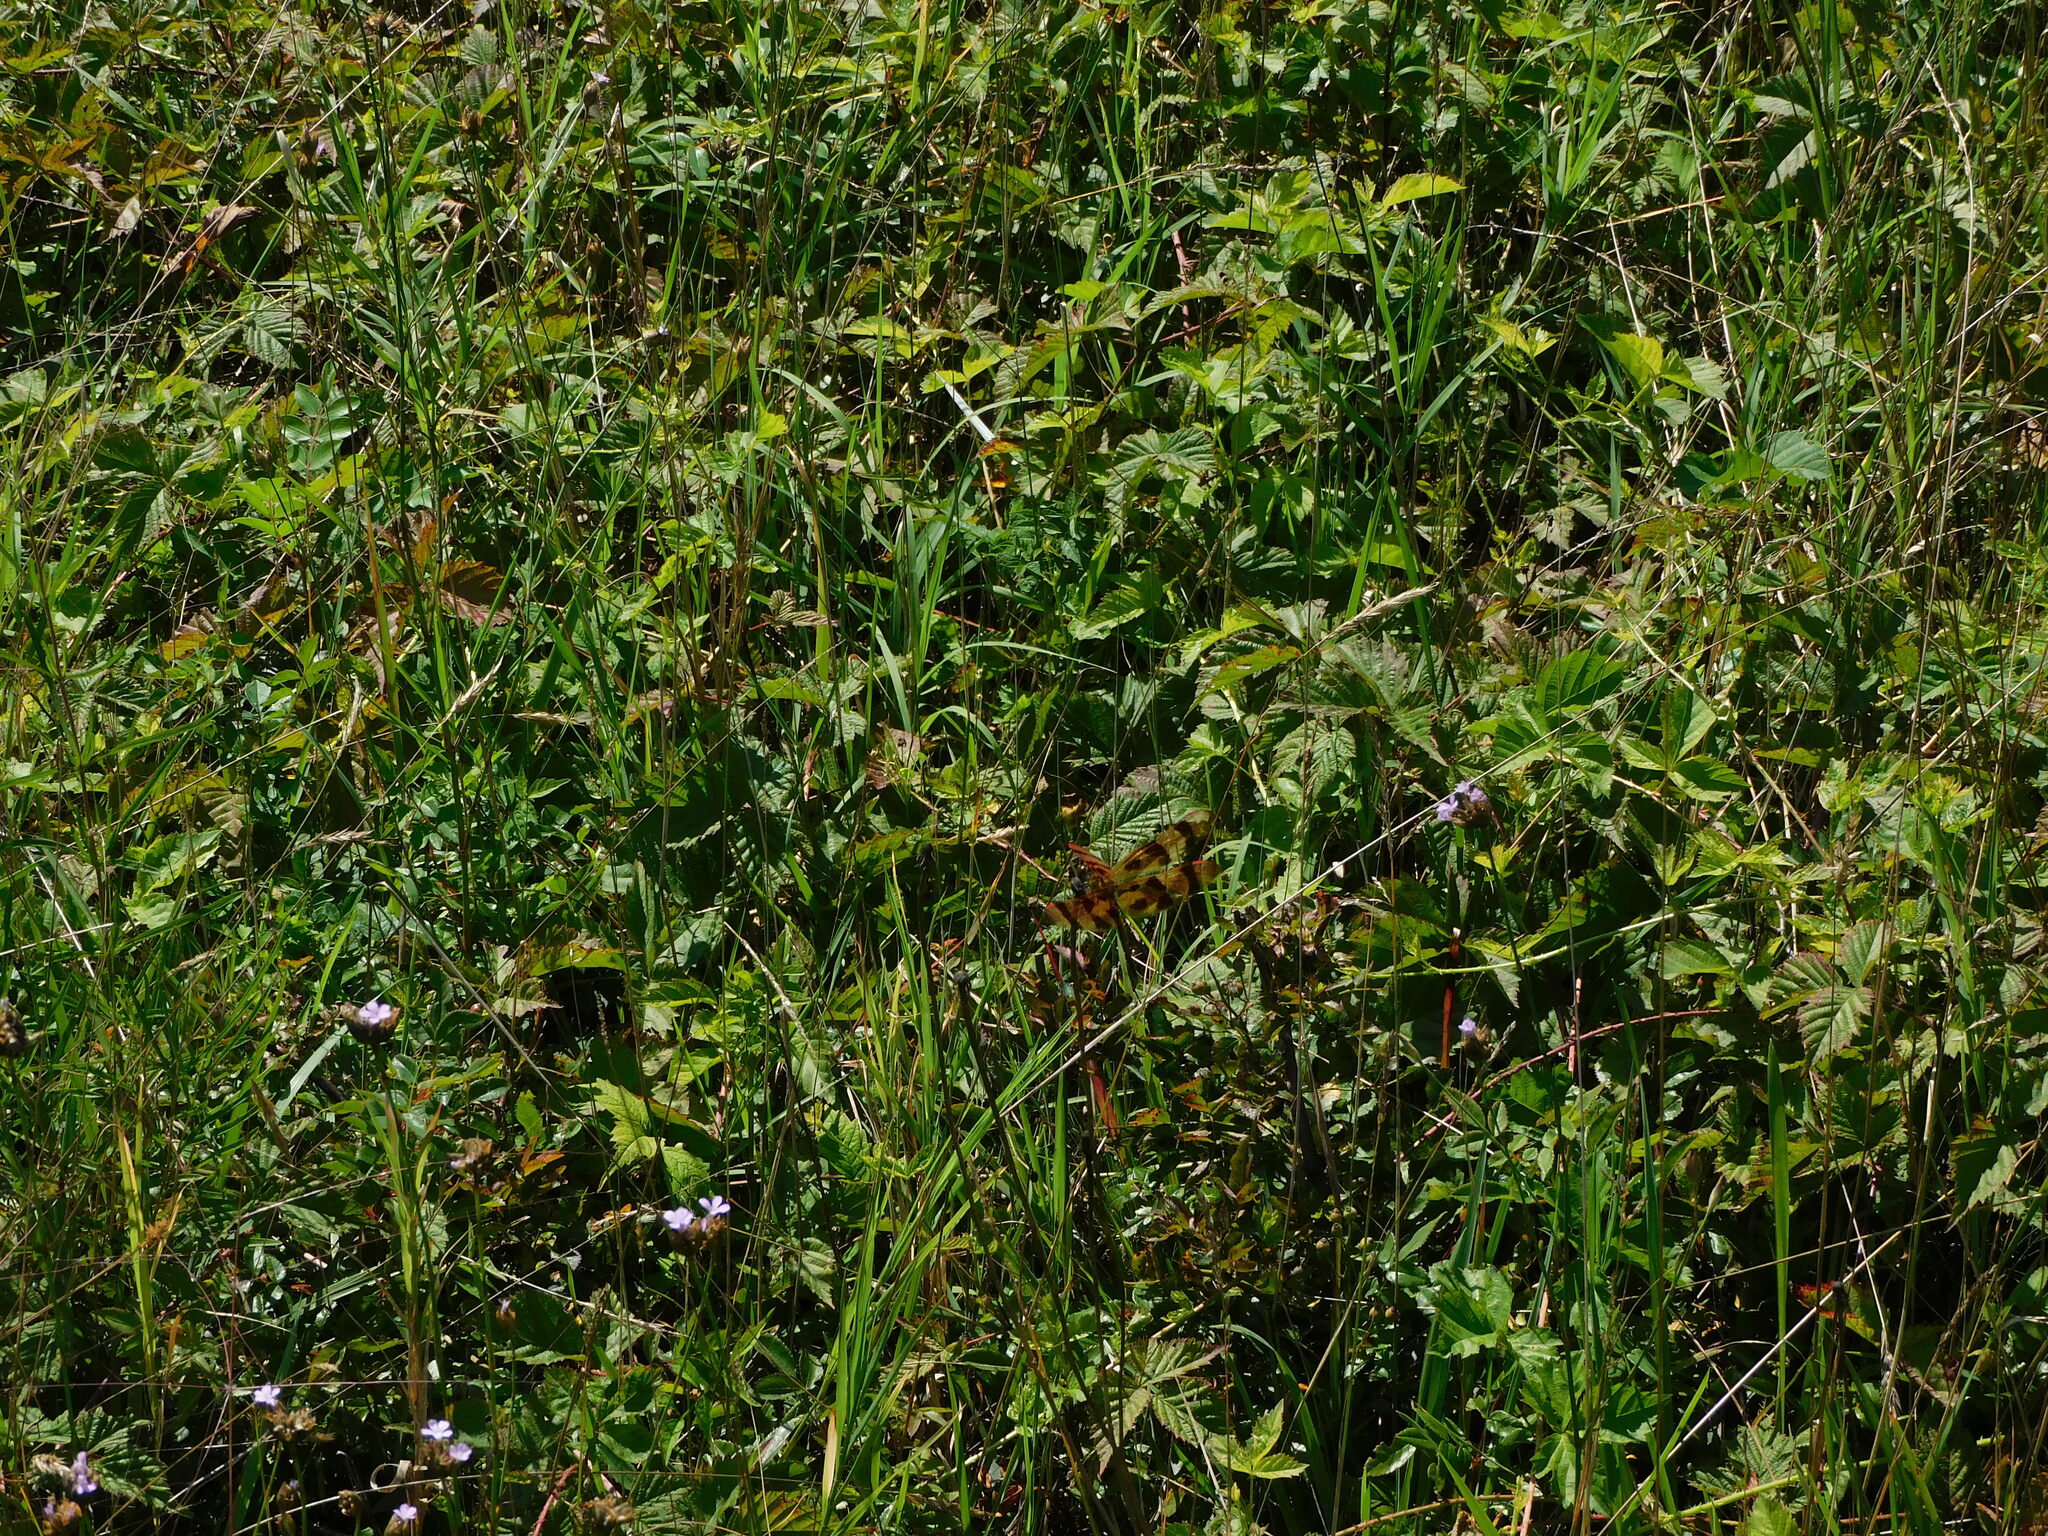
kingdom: Animalia
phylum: Arthropoda
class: Insecta
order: Odonata
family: Libellulidae
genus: Celithemis
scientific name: Celithemis eponina
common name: Halloween pennant
